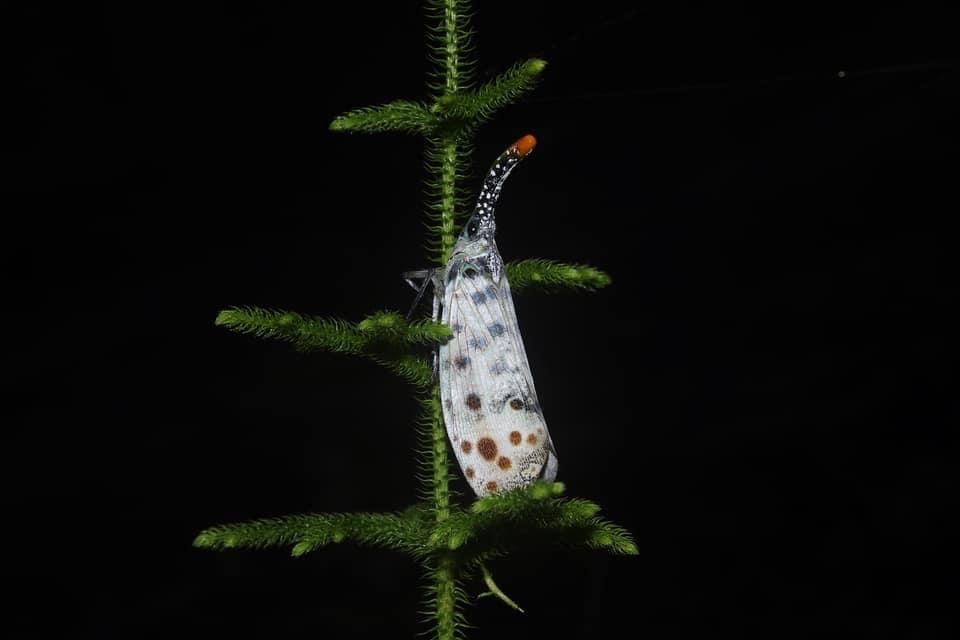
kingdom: Animalia
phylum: Arthropoda
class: Insecta
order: Hemiptera
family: Fulgoridae
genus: Pyrops
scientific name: Pyrops lathburii
